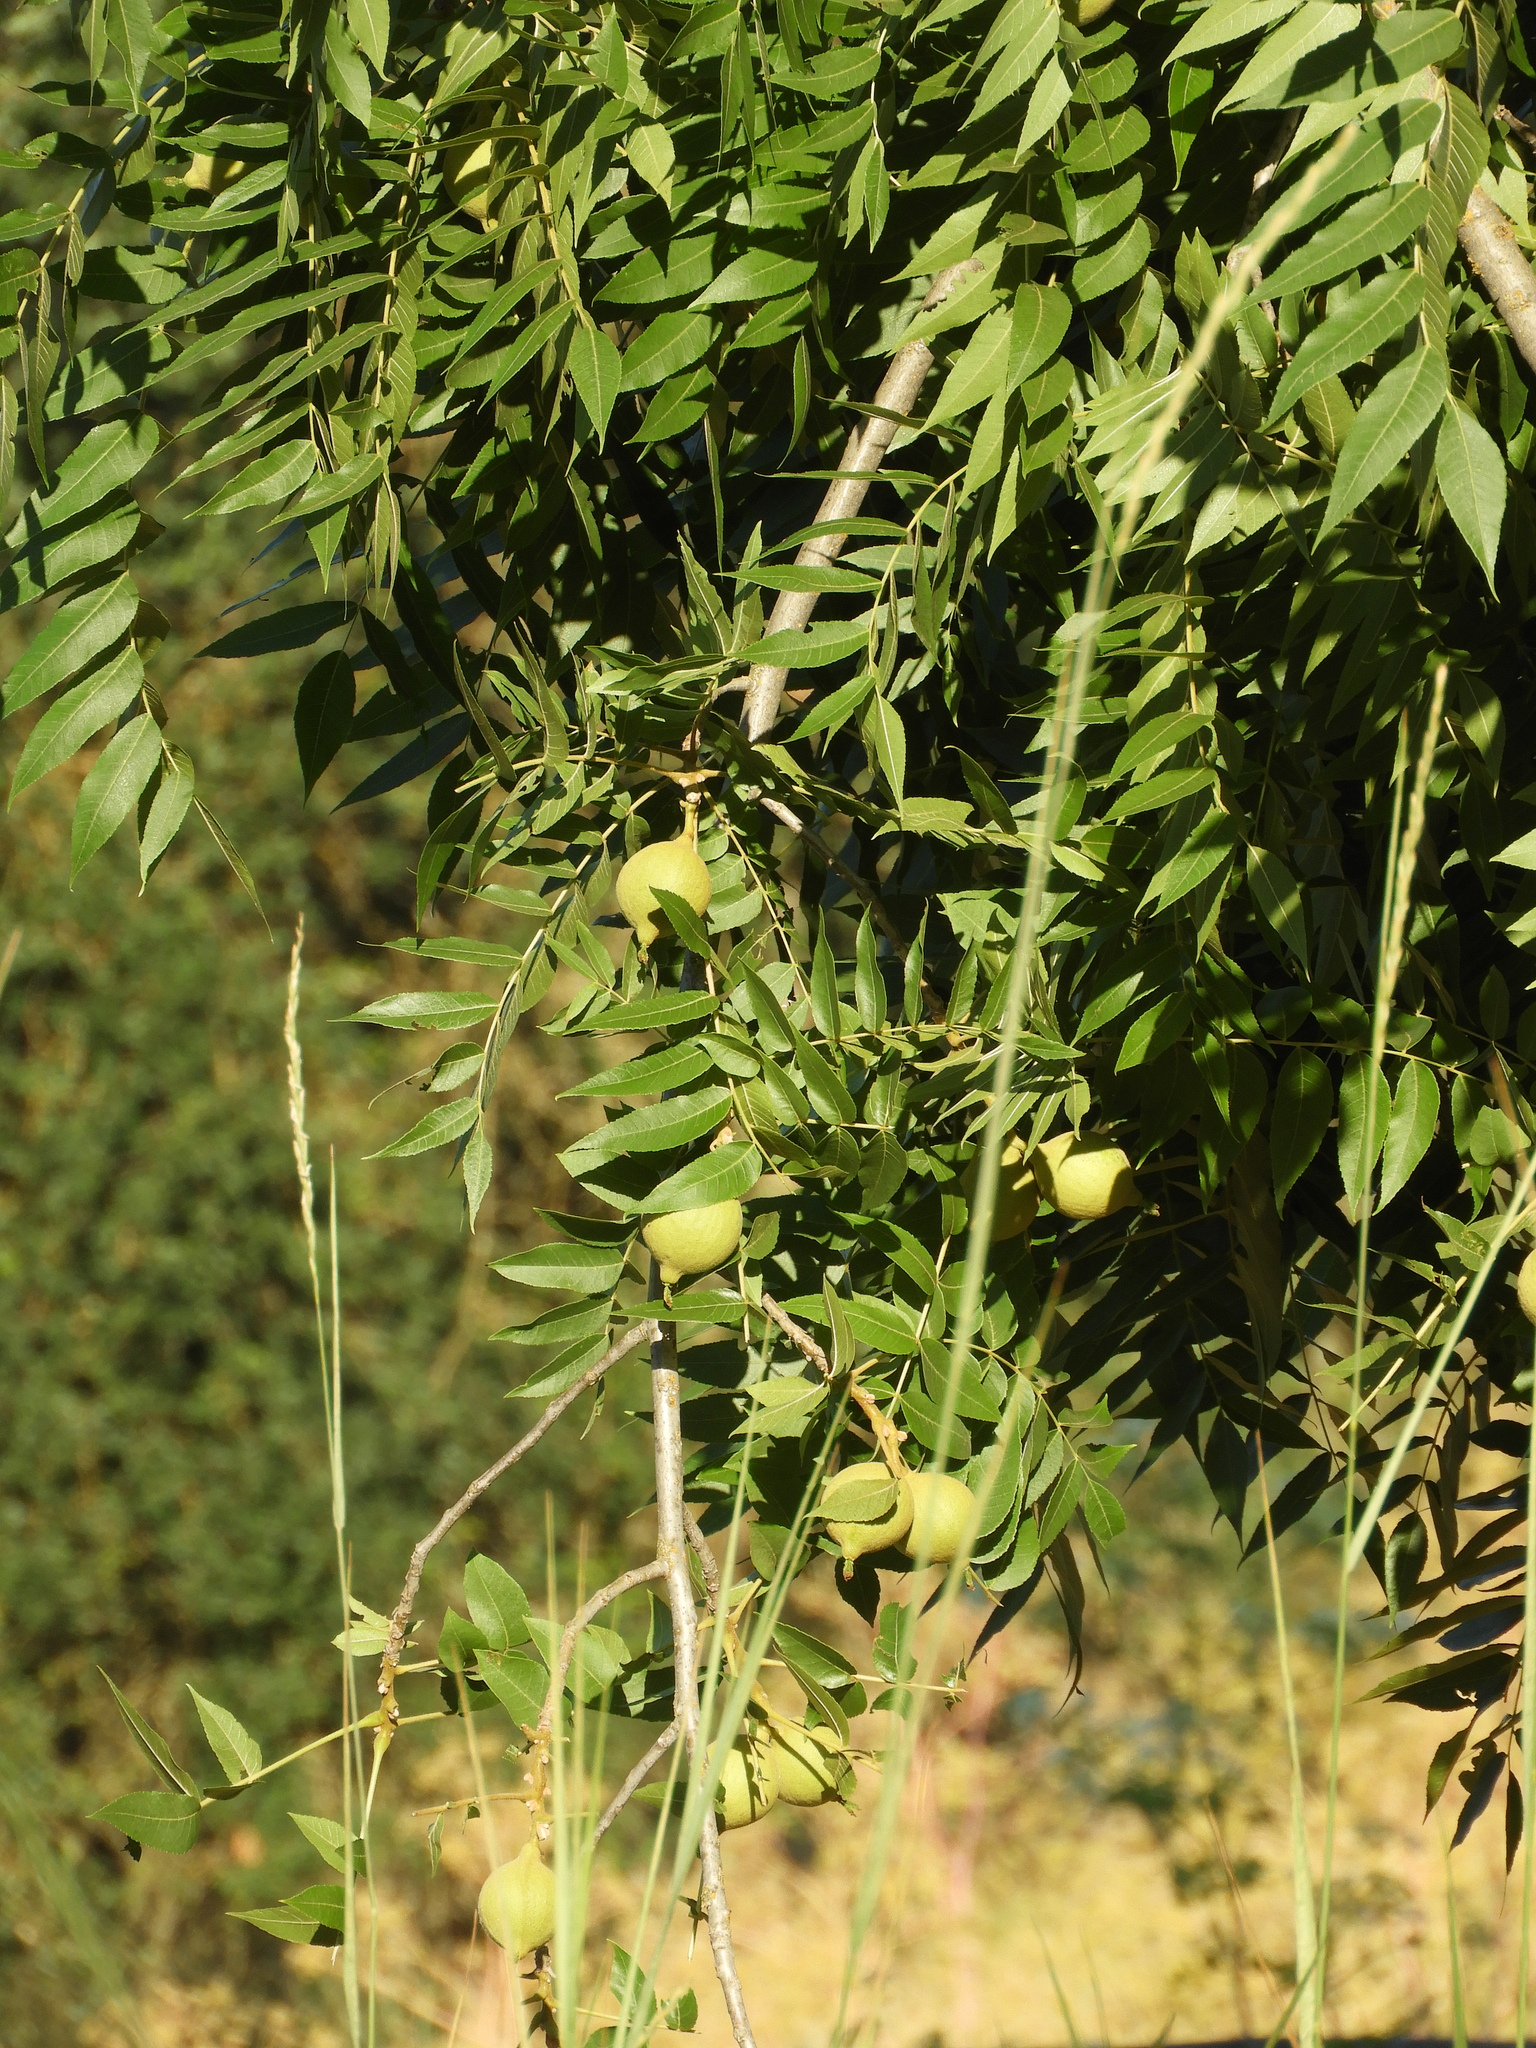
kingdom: Plantae
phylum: Tracheophyta
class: Magnoliopsida
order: Fagales
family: Juglandaceae
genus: Juglans
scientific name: Juglans hindsii
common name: Northern california black walnut
